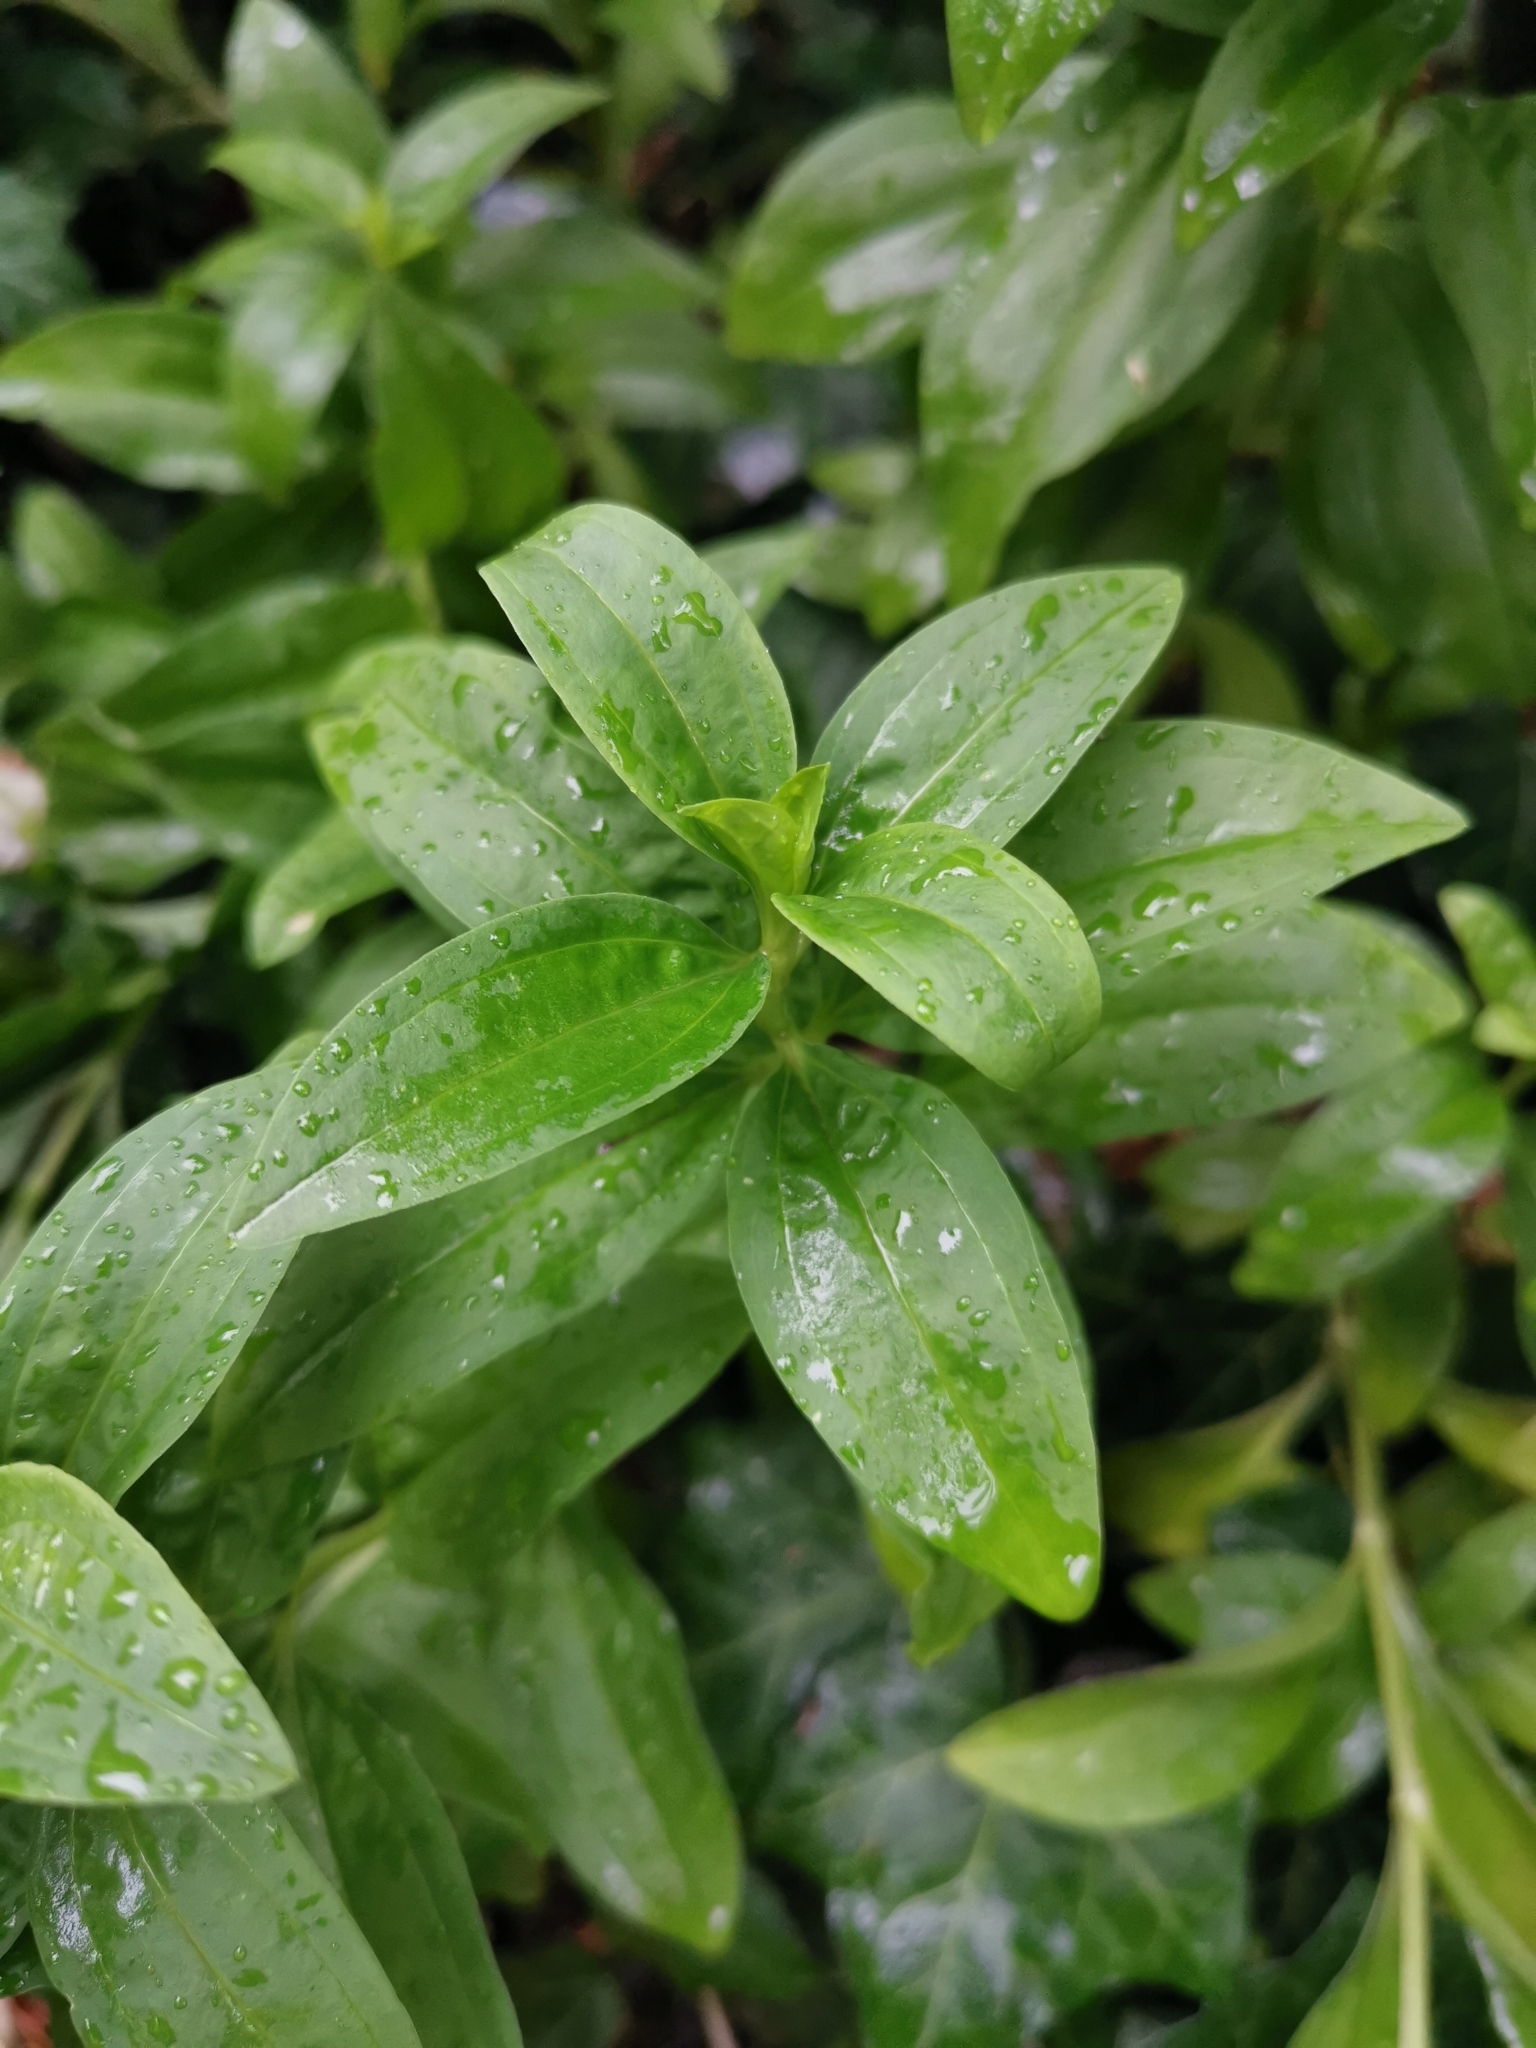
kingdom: Plantae
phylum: Tracheophyta
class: Magnoliopsida
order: Caryophyllales
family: Caryophyllaceae
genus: Saponaria
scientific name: Saponaria officinalis
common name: Soapwort
